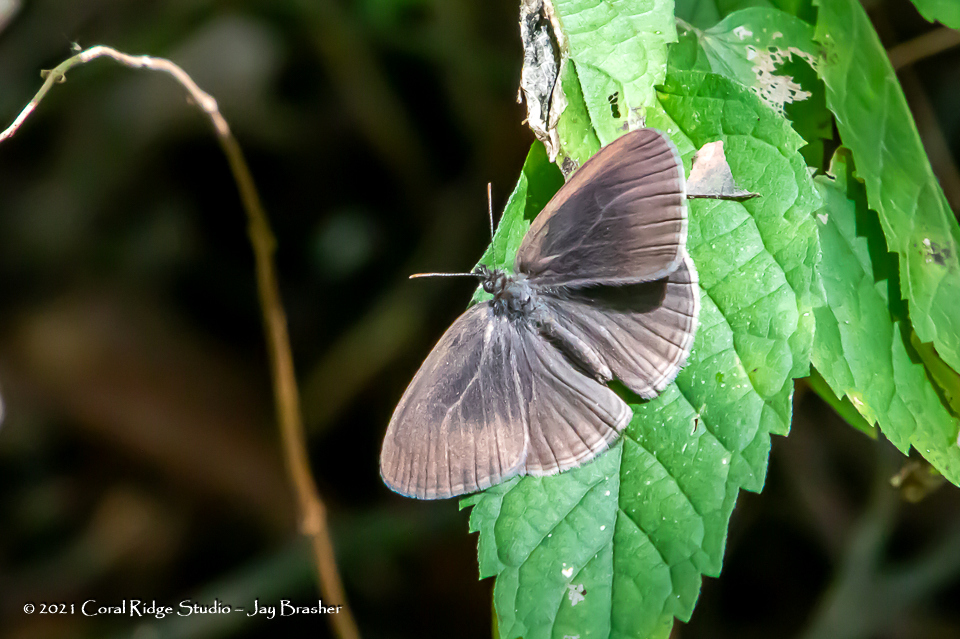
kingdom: Animalia
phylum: Arthropoda
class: Insecta
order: Lepidoptera
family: Nymphalidae
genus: Hermeuptychia
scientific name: Hermeuptychia hermes
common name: Hermes satyr
